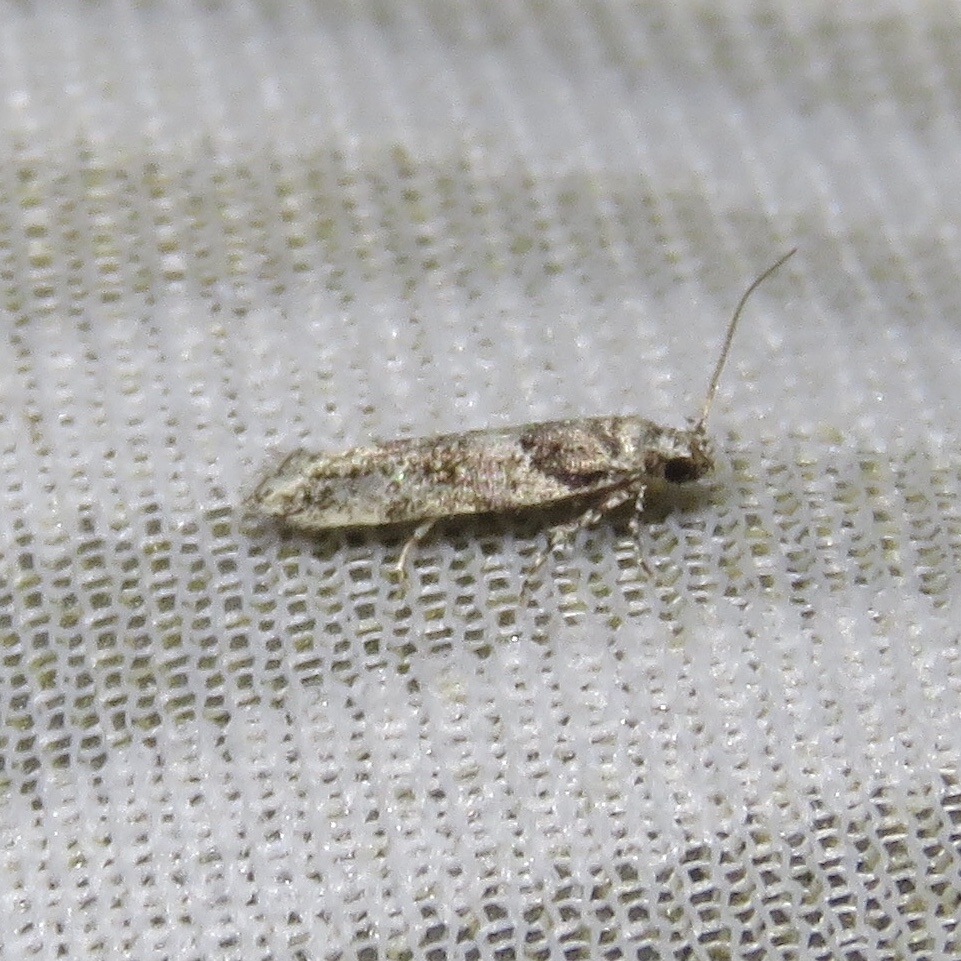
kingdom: Animalia
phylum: Arthropoda
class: Insecta
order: Lepidoptera
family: Crambidae
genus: Scoparia
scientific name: Scoparia biplagialis
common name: Double-striped scoparia moth
